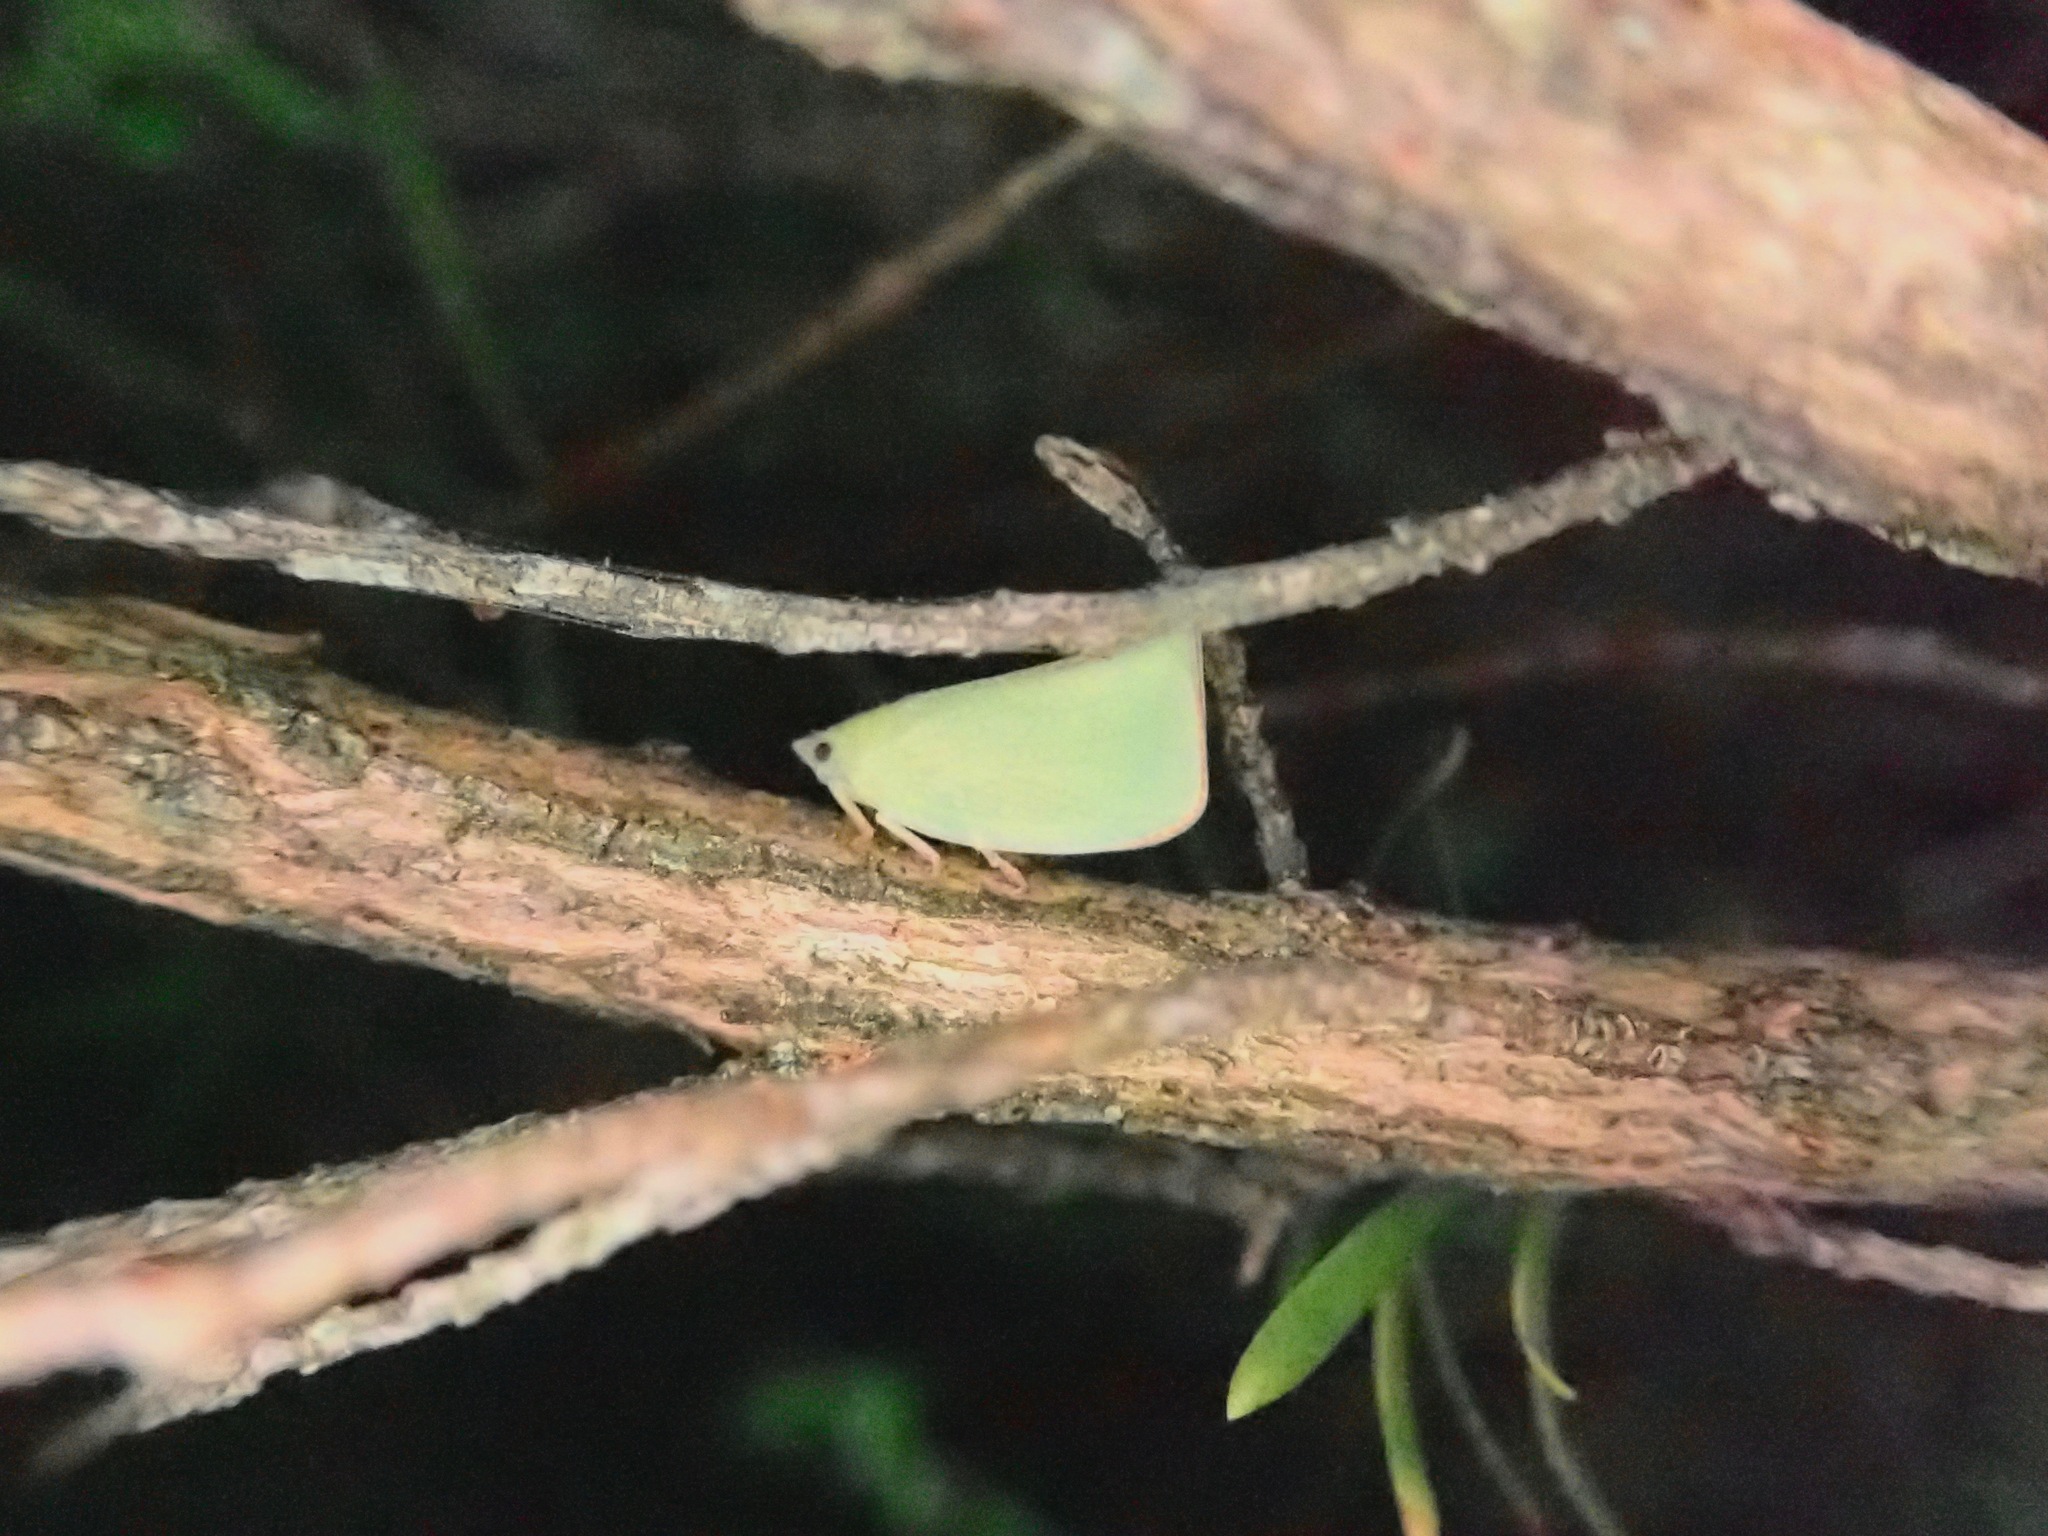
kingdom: Animalia
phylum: Arthropoda
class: Insecta
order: Hemiptera
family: Flatidae
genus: Siphanta
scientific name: Siphanta acuta
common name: Torpedo bug
